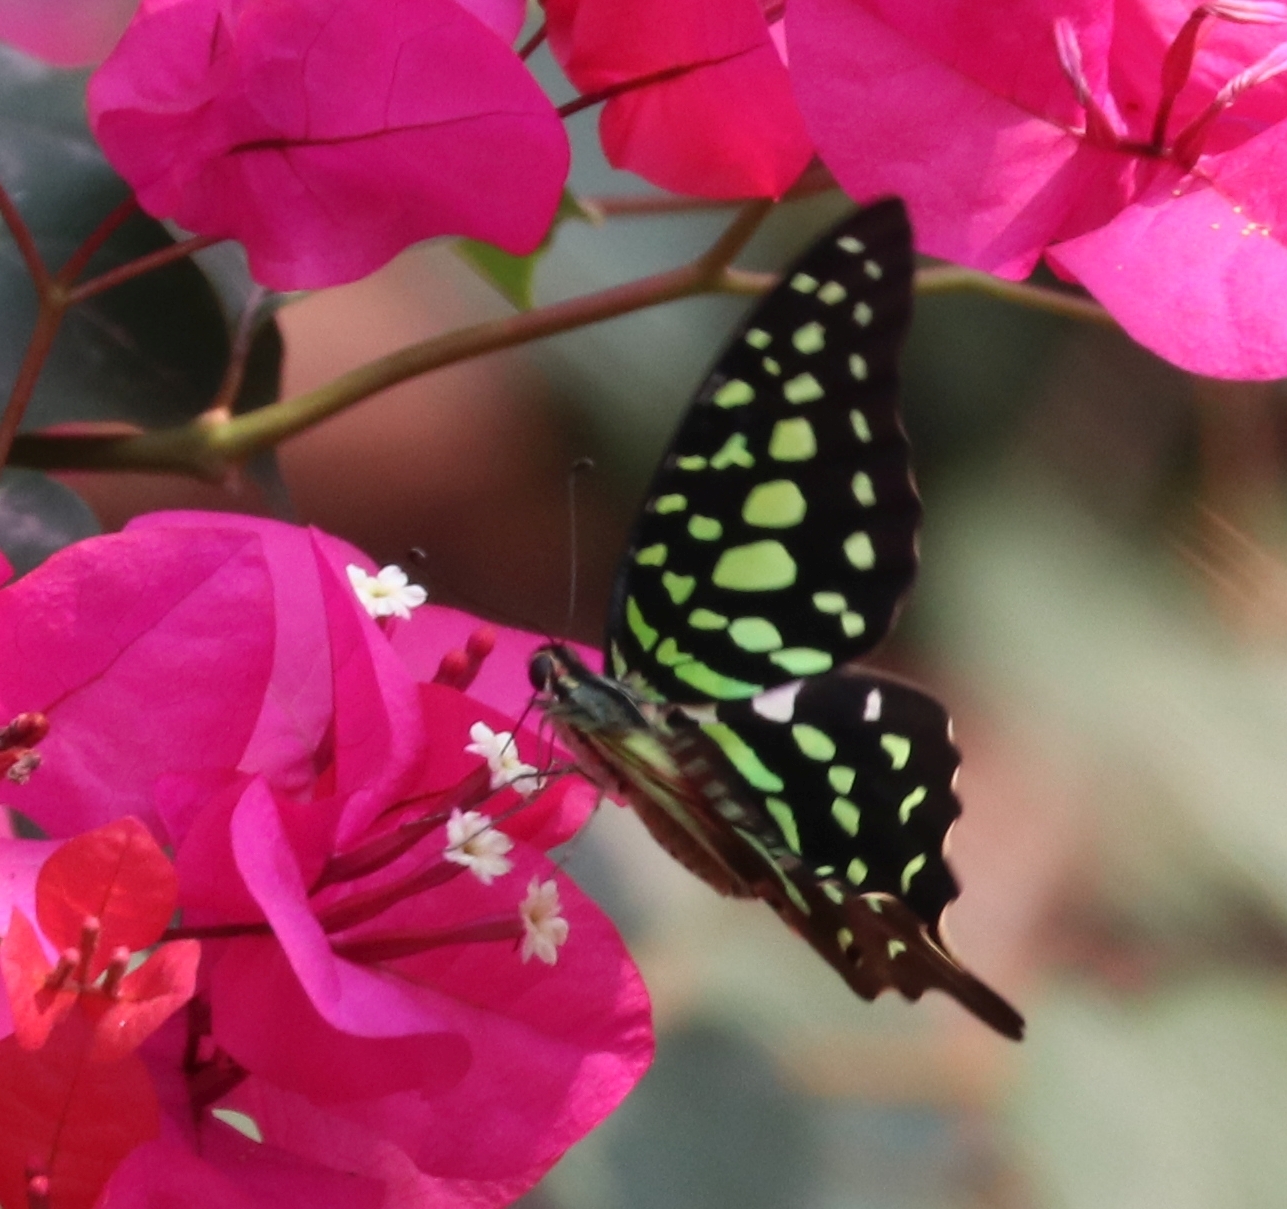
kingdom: Animalia
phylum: Arthropoda
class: Insecta
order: Lepidoptera
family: Papilionidae
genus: Graphium
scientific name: Graphium agamemnon
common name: Tailed jay
